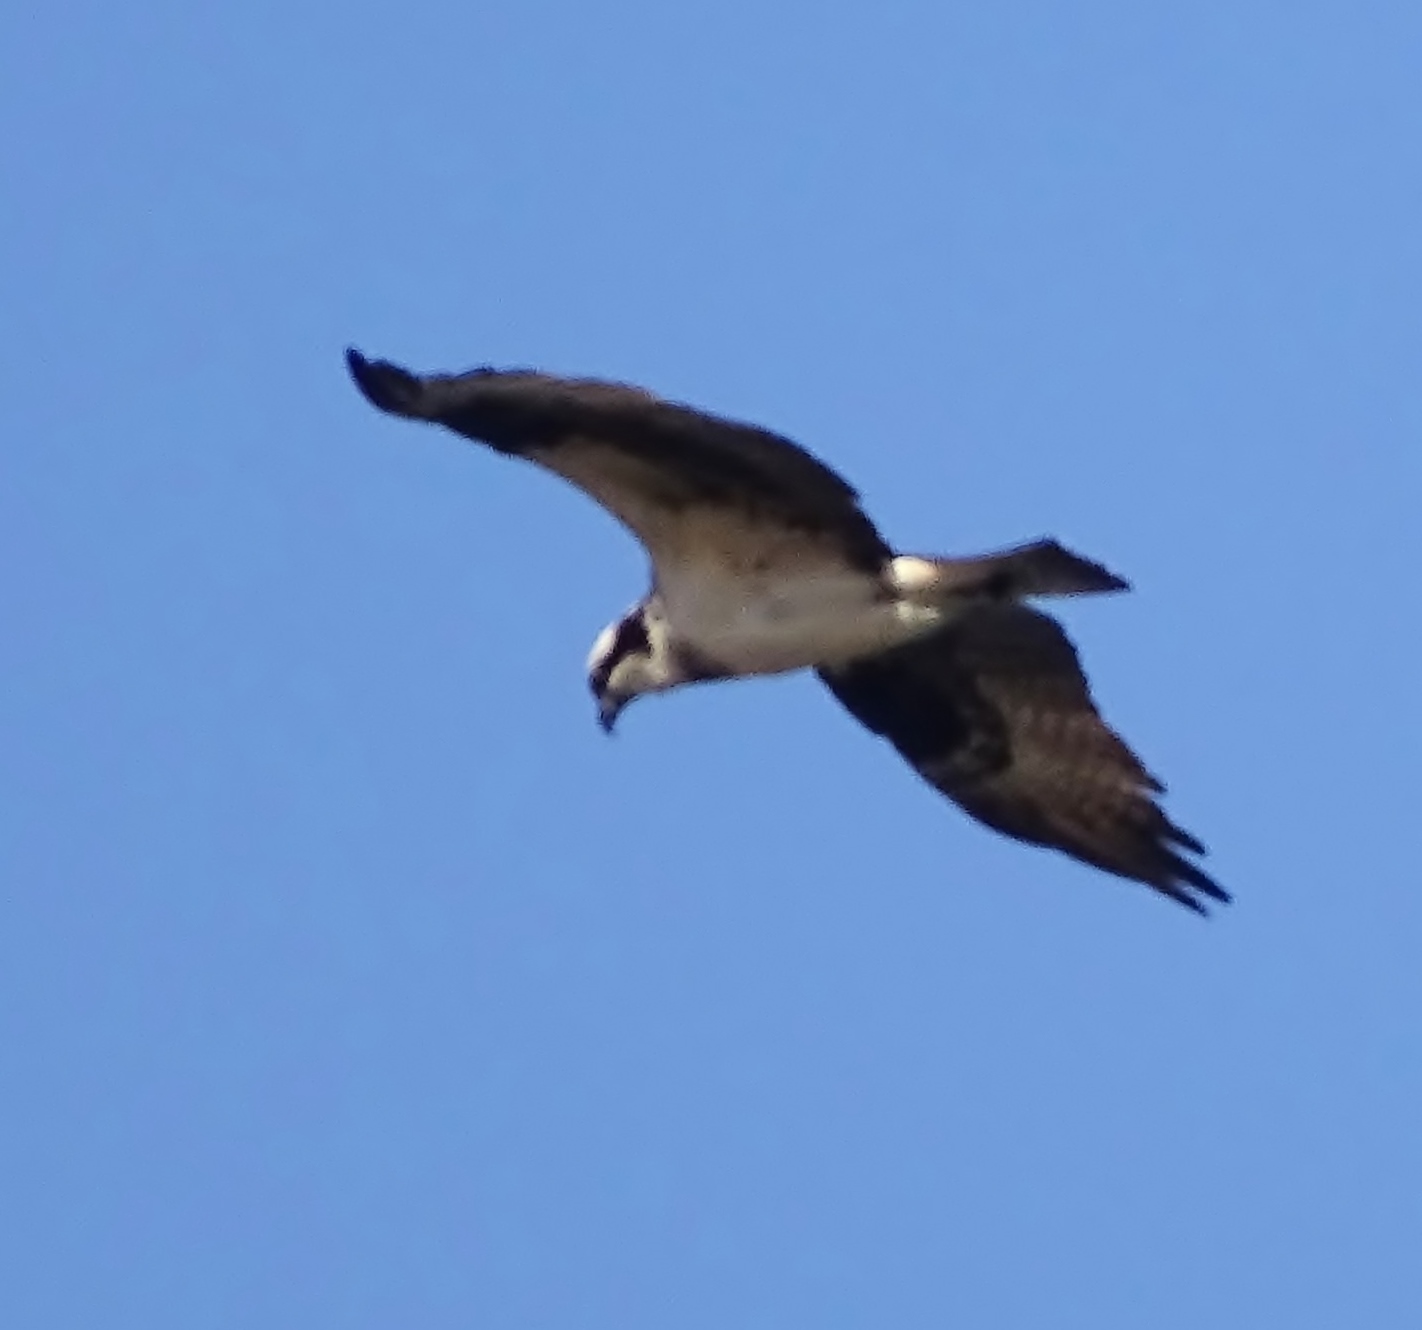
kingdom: Animalia
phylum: Chordata
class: Aves
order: Accipitriformes
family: Pandionidae
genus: Pandion
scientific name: Pandion haliaetus
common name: Osprey
